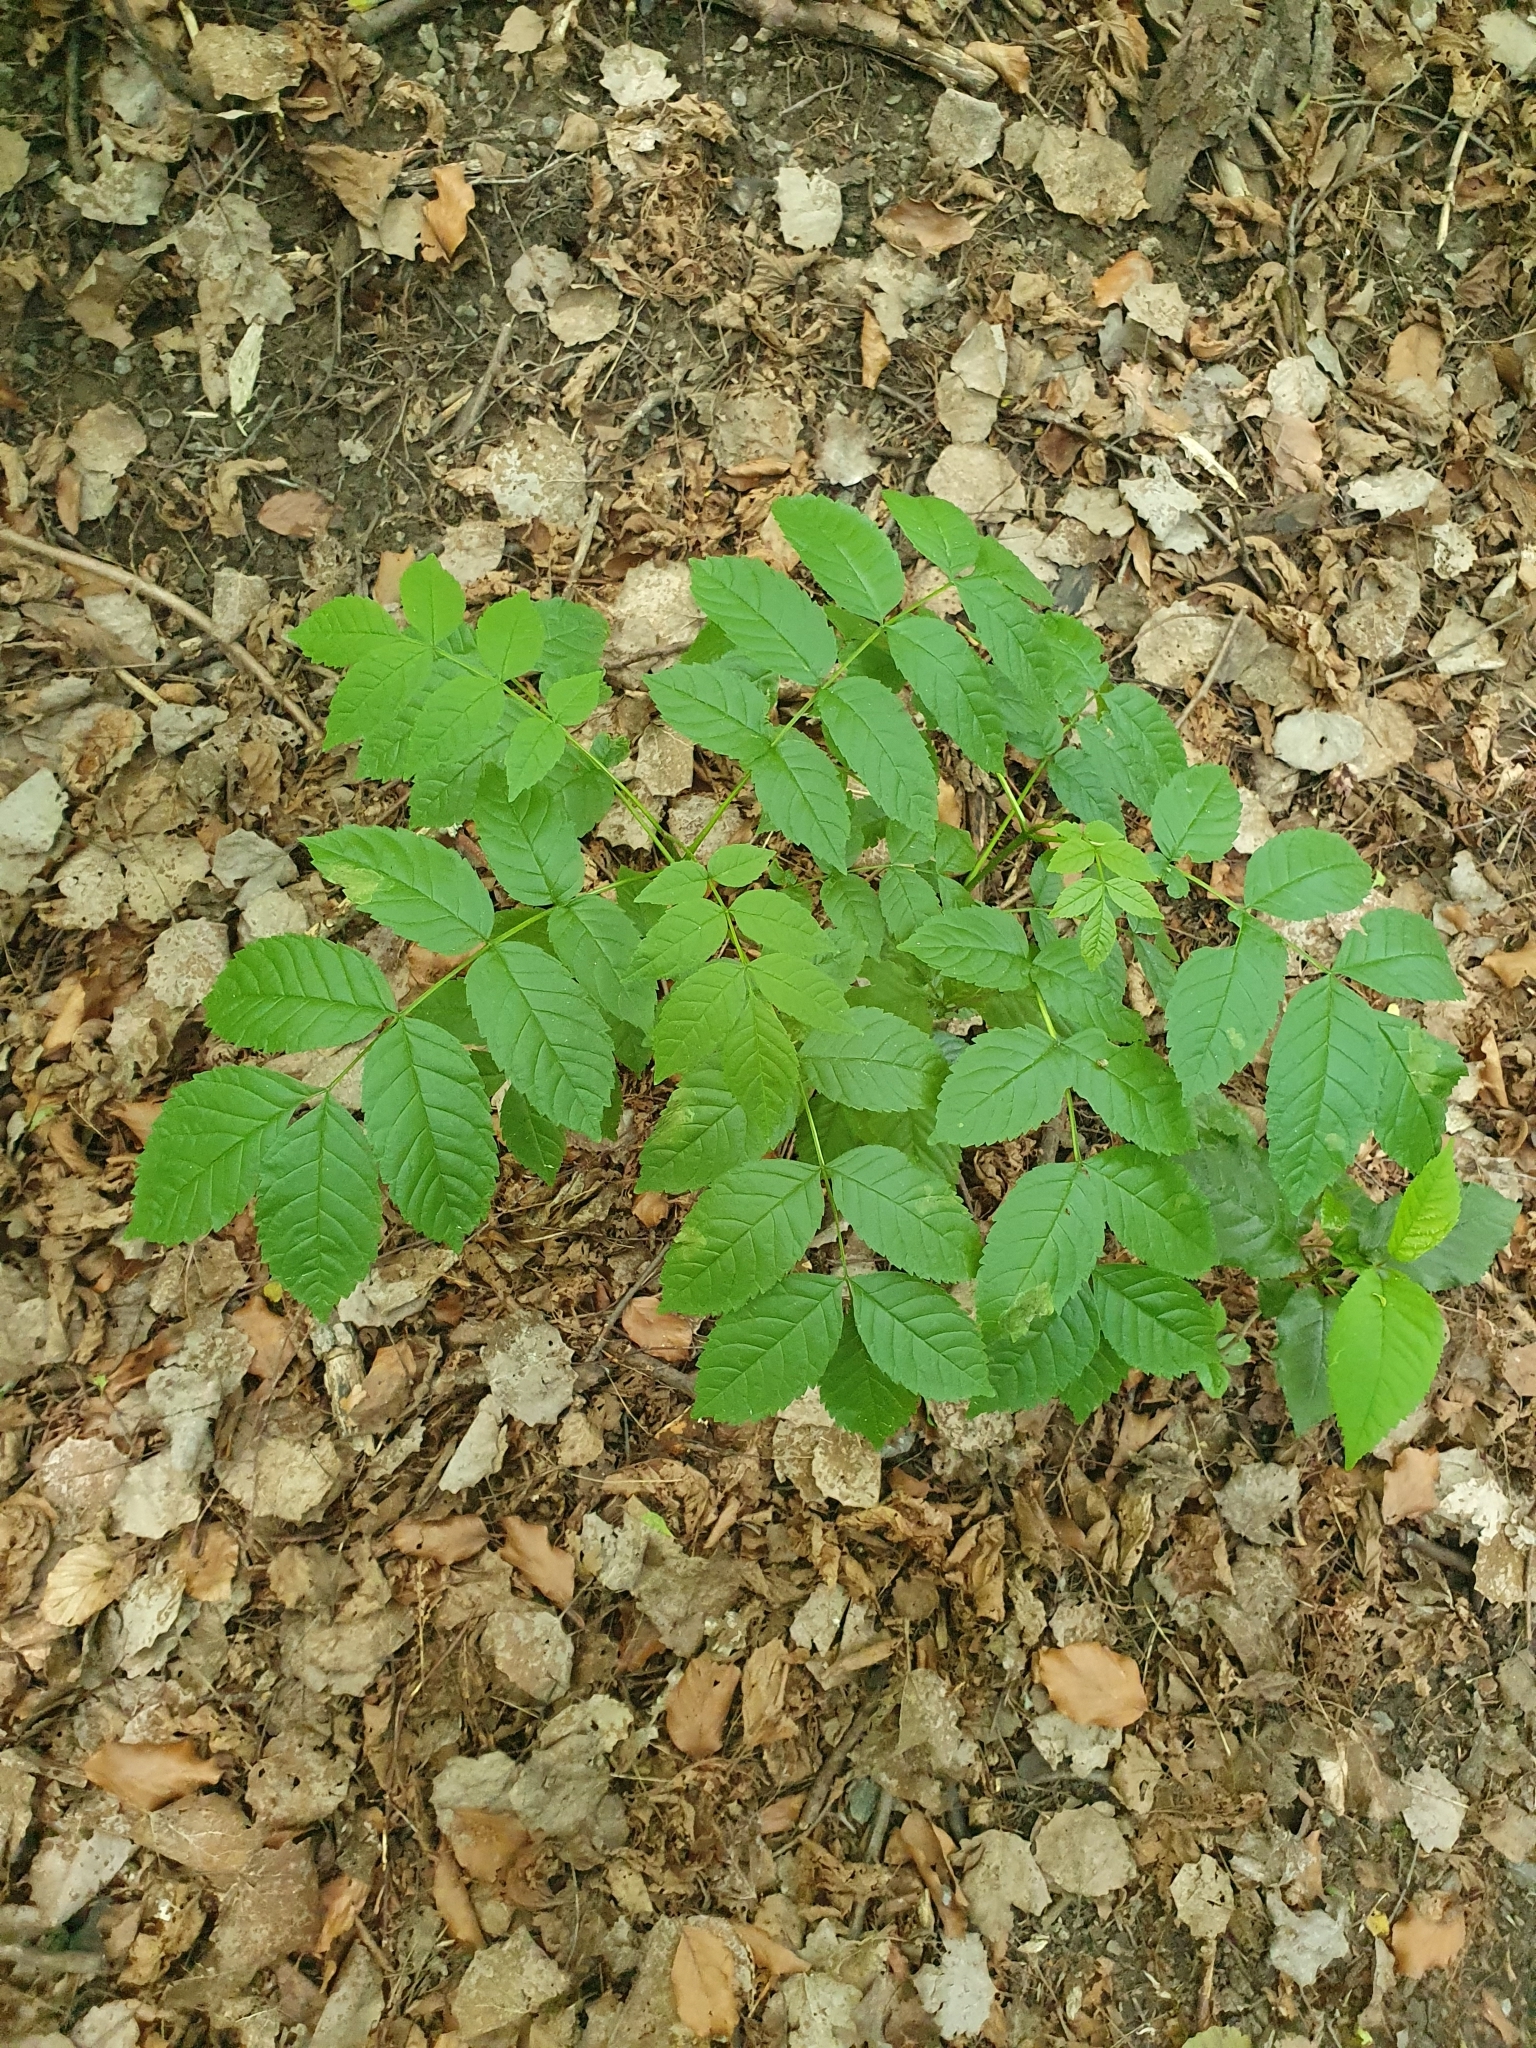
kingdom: Plantae
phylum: Tracheophyta
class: Magnoliopsida
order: Lamiales
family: Oleaceae
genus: Fraxinus
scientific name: Fraxinus excelsior
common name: European ash
